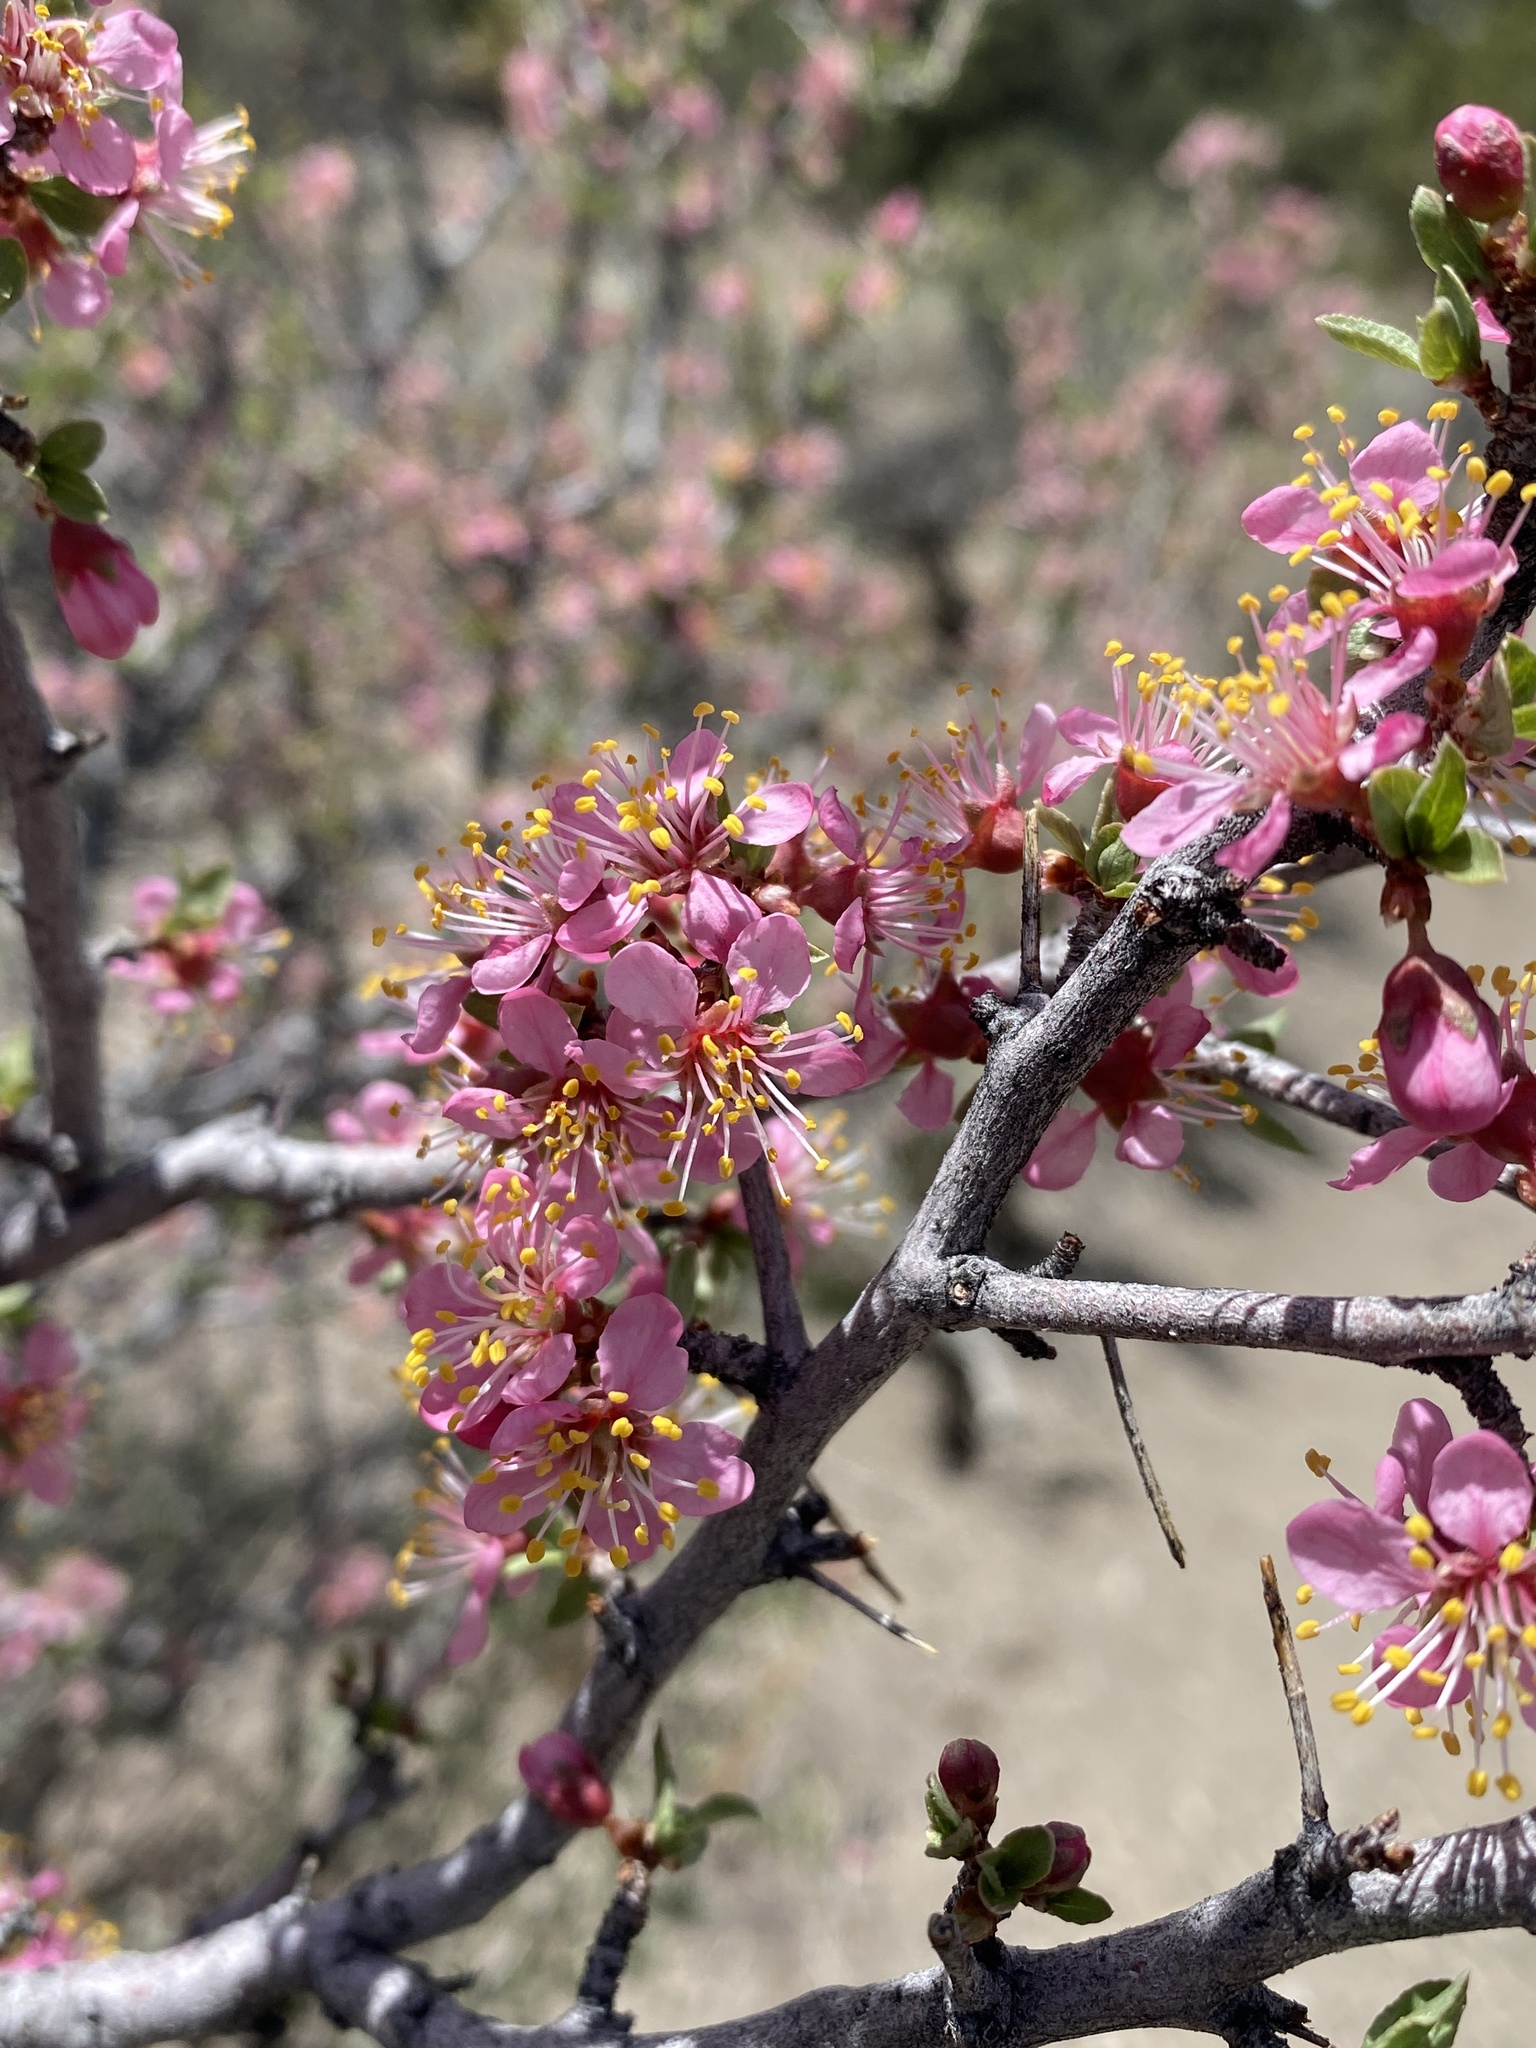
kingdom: Plantae
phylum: Tracheophyta
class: Magnoliopsida
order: Rosales
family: Rosaceae
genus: Prunus
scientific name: Prunus andersonii
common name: Desert peach
